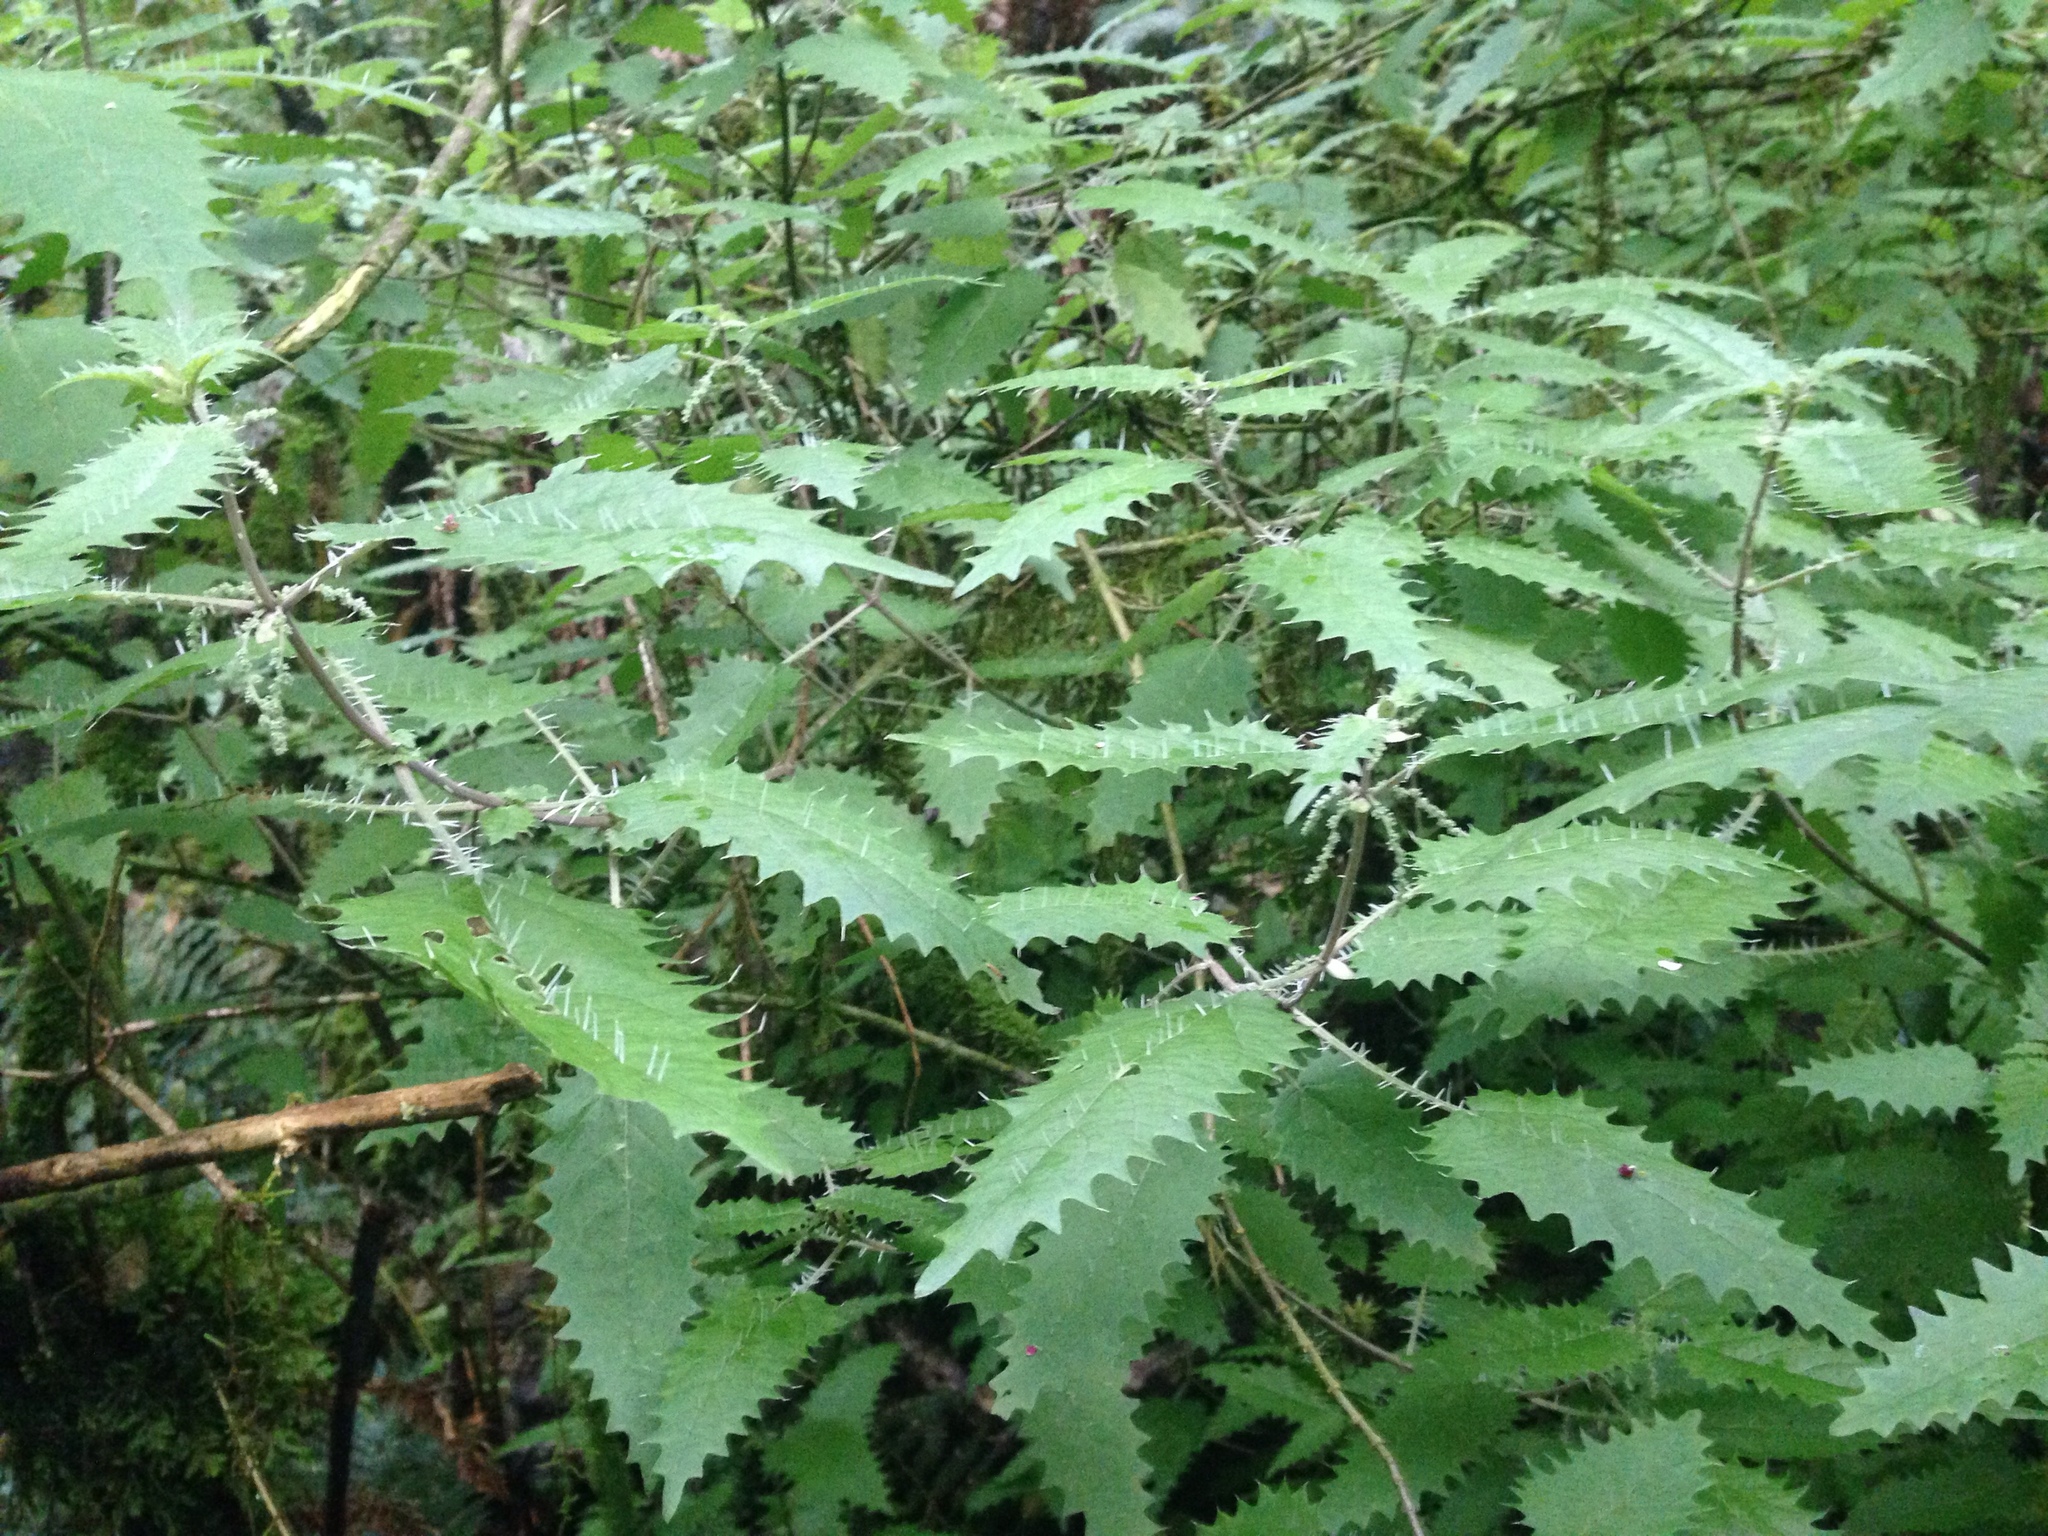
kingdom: Plantae
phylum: Tracheophyta
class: Magnoliopsida
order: Rosales
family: Urticaceae
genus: Urtica
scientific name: Urtica ferox
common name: Tree nettle
